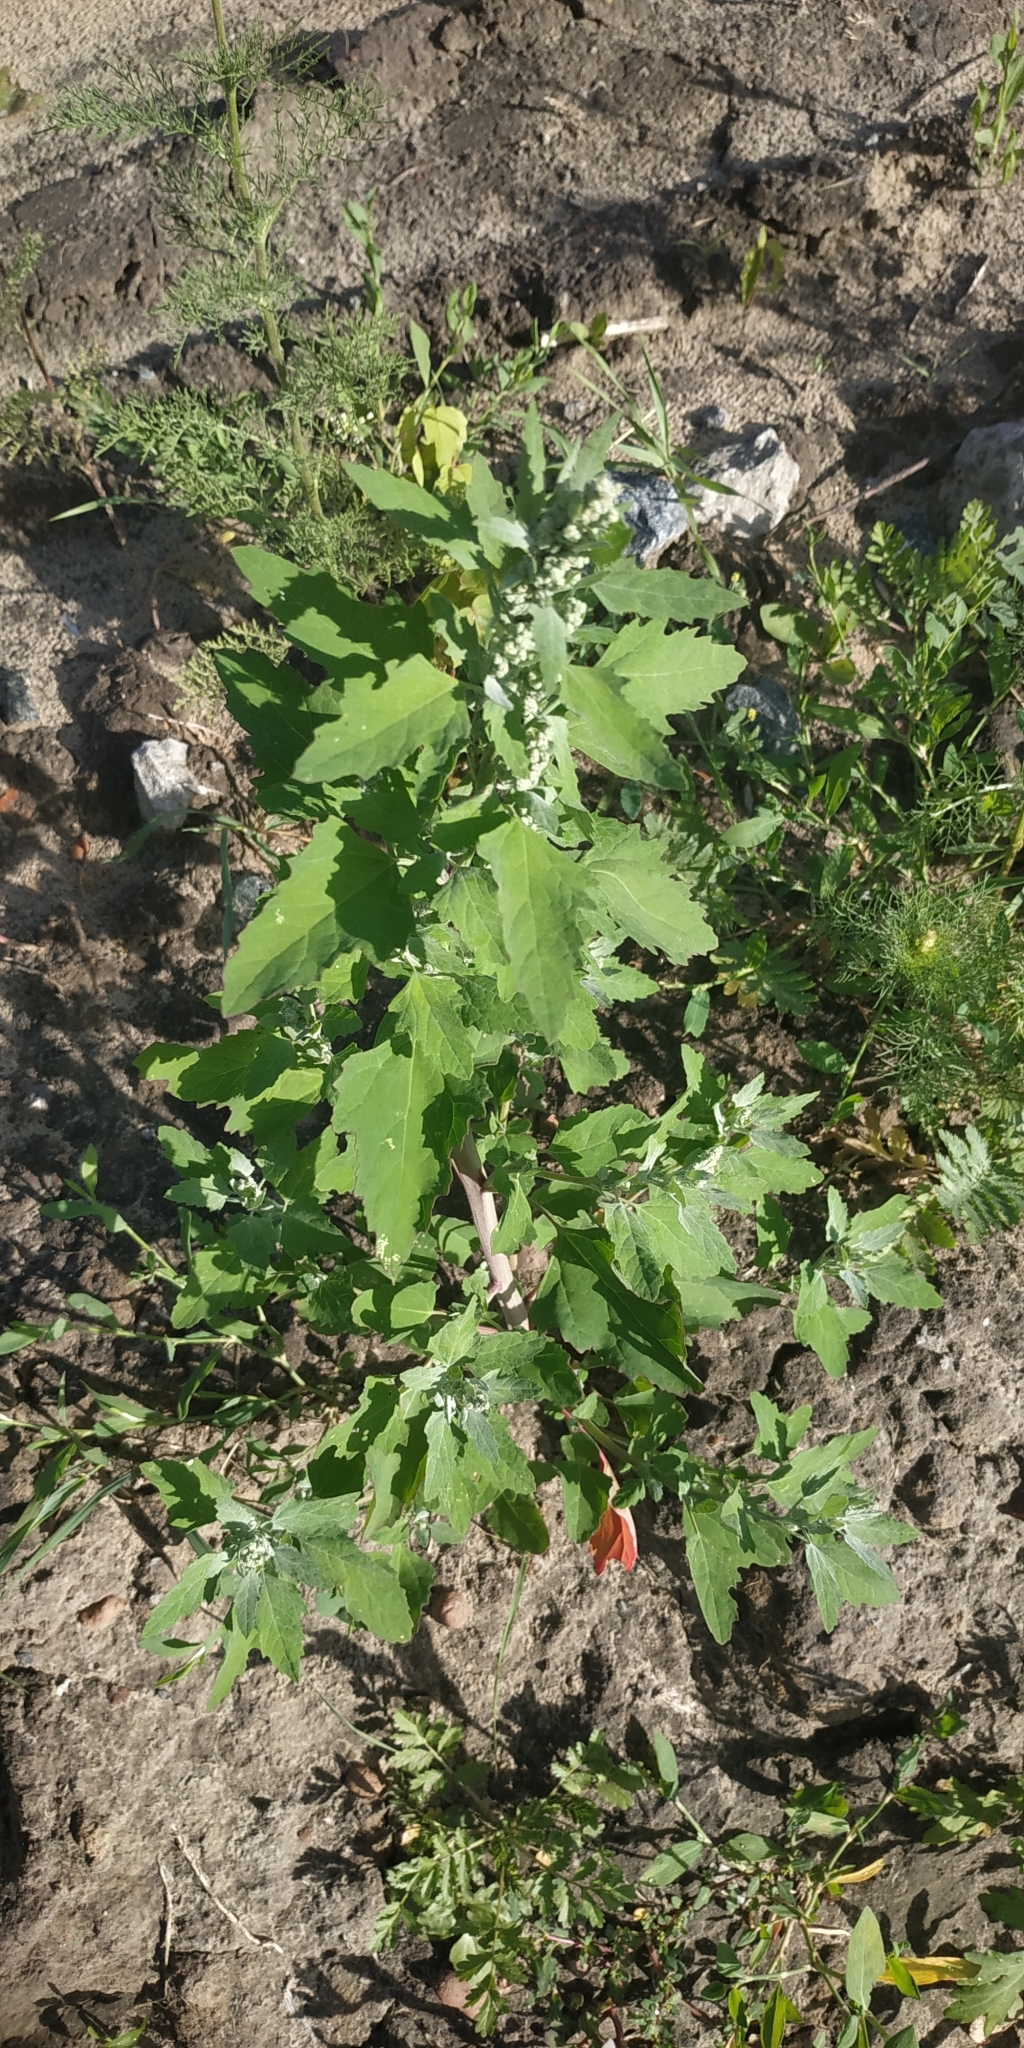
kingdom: Plantae
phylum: Tracheophyta
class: Magnoliopsida
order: Caryophyllales
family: Amaranthaceae
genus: Chenopodium
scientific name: Chenopodium album
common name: Fat-hen
